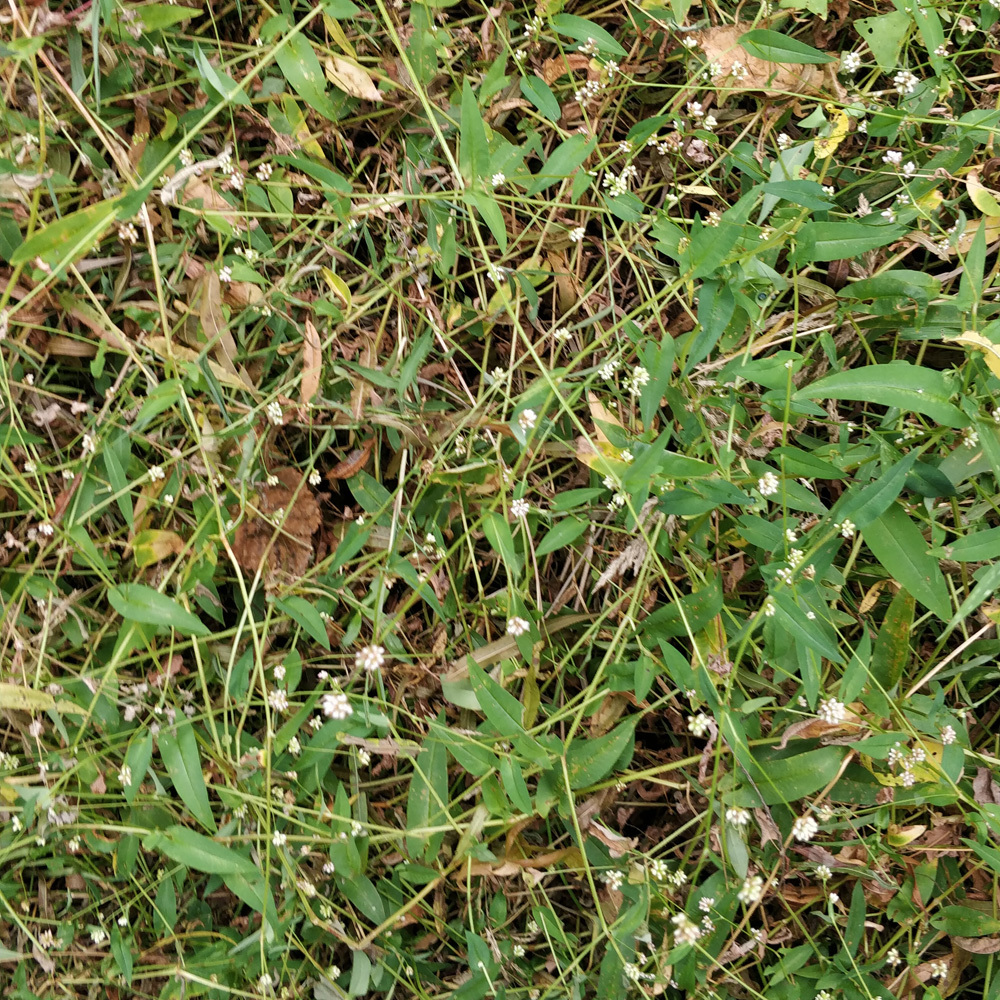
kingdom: Plantae
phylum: Tracheophyta
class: Magnoliopsida
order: Caryophyllales
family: Polygonaceae
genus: Persicaria
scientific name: Persicaria sagittata
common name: American tearthumb
